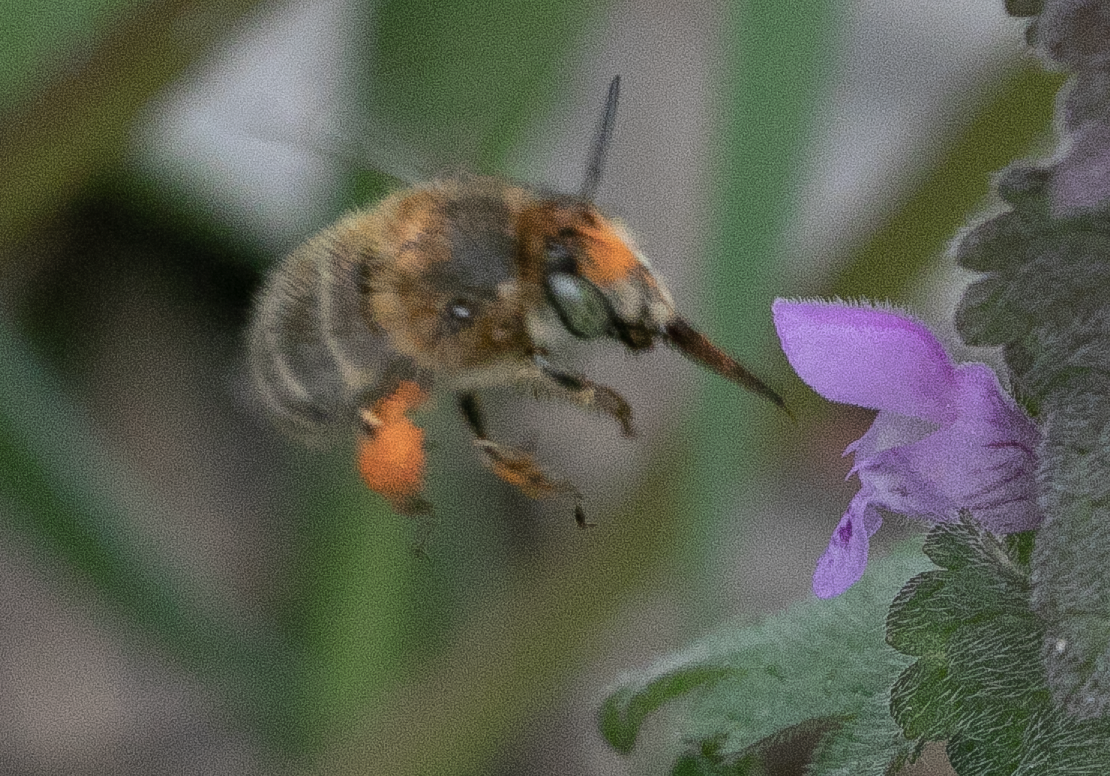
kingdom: Animalia
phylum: Arthropoda
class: Insecta
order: Hymenoptera
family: Apidae
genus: Anthophora
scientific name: Anthophora crinipes
